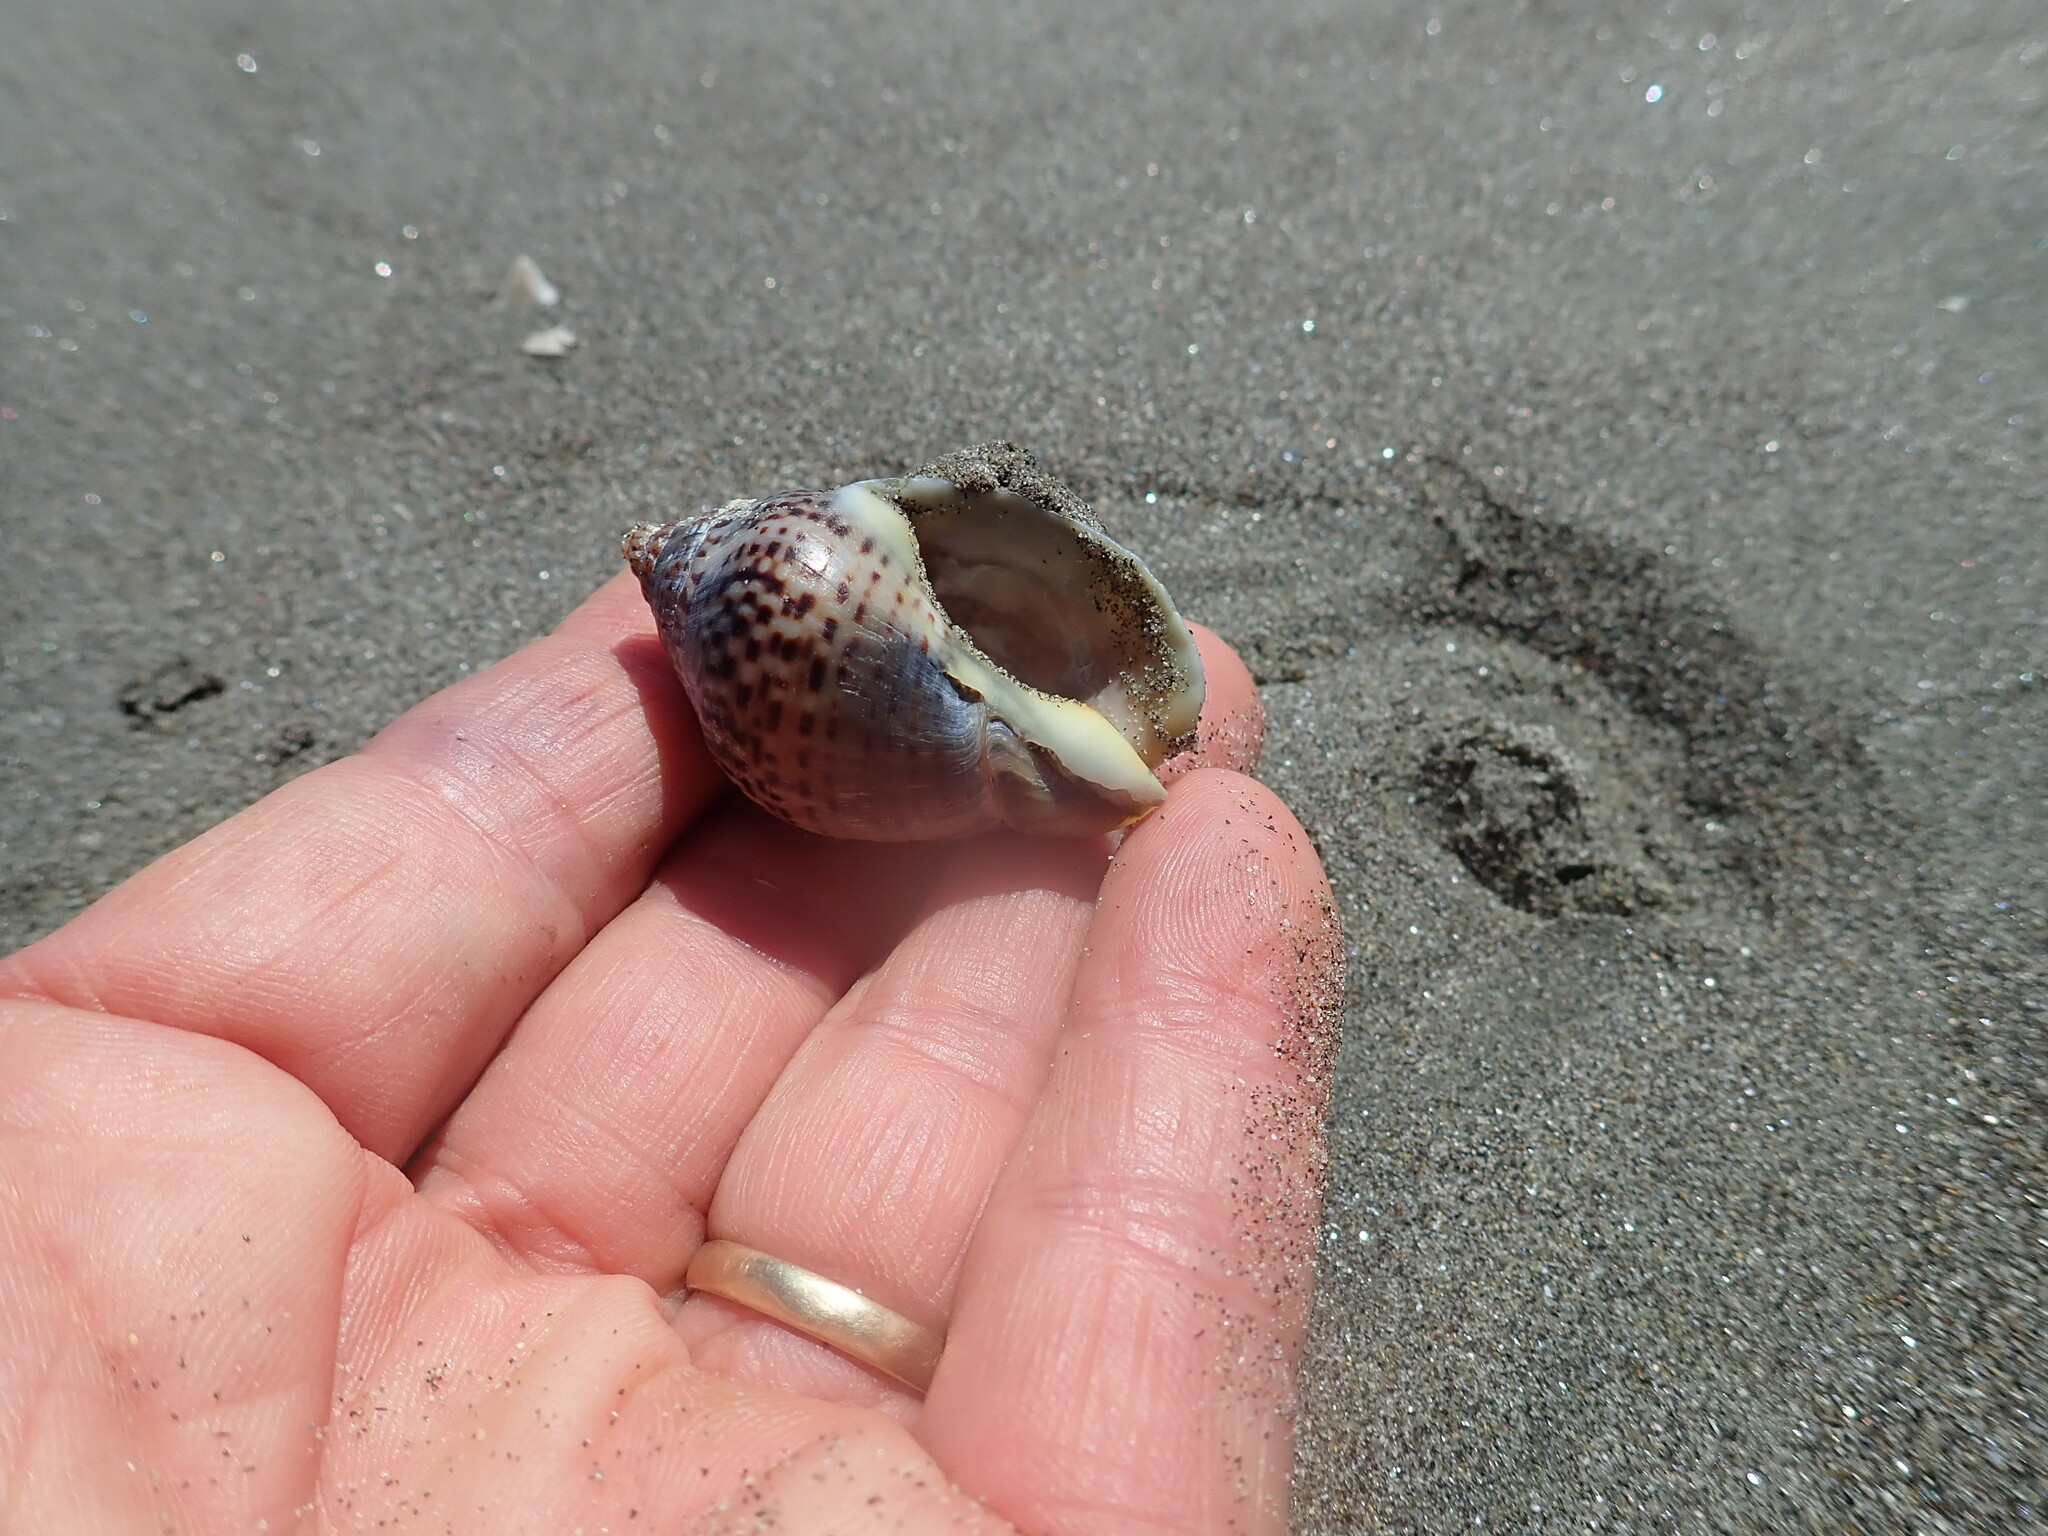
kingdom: Animalia
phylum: Mollusca
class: Gastropoda
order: Neogastropoda
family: Cominellidae
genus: Cominella
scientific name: Cominella adspersa
